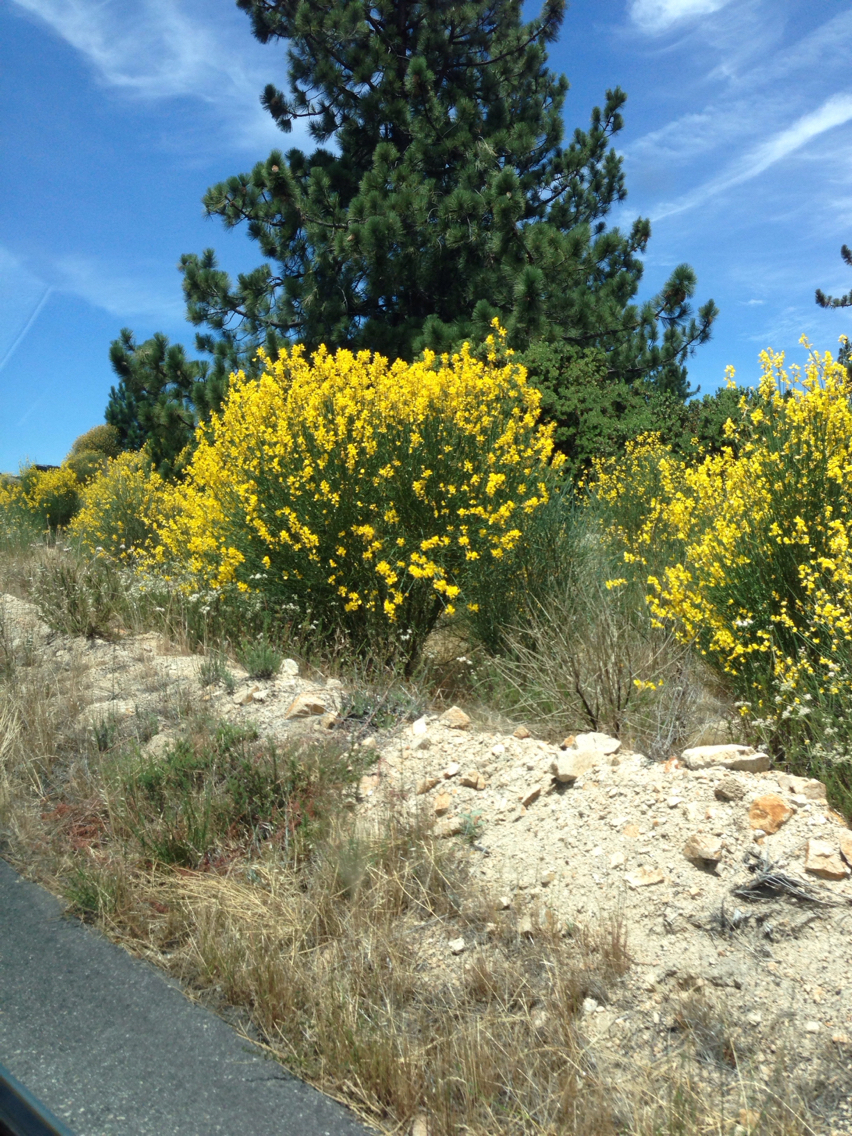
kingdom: Plantae
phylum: Tracheophyta
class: Magnoliopsida
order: Fabales
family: Fabaceae
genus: Spartium
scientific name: Spartium junceum
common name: Spanish broom
